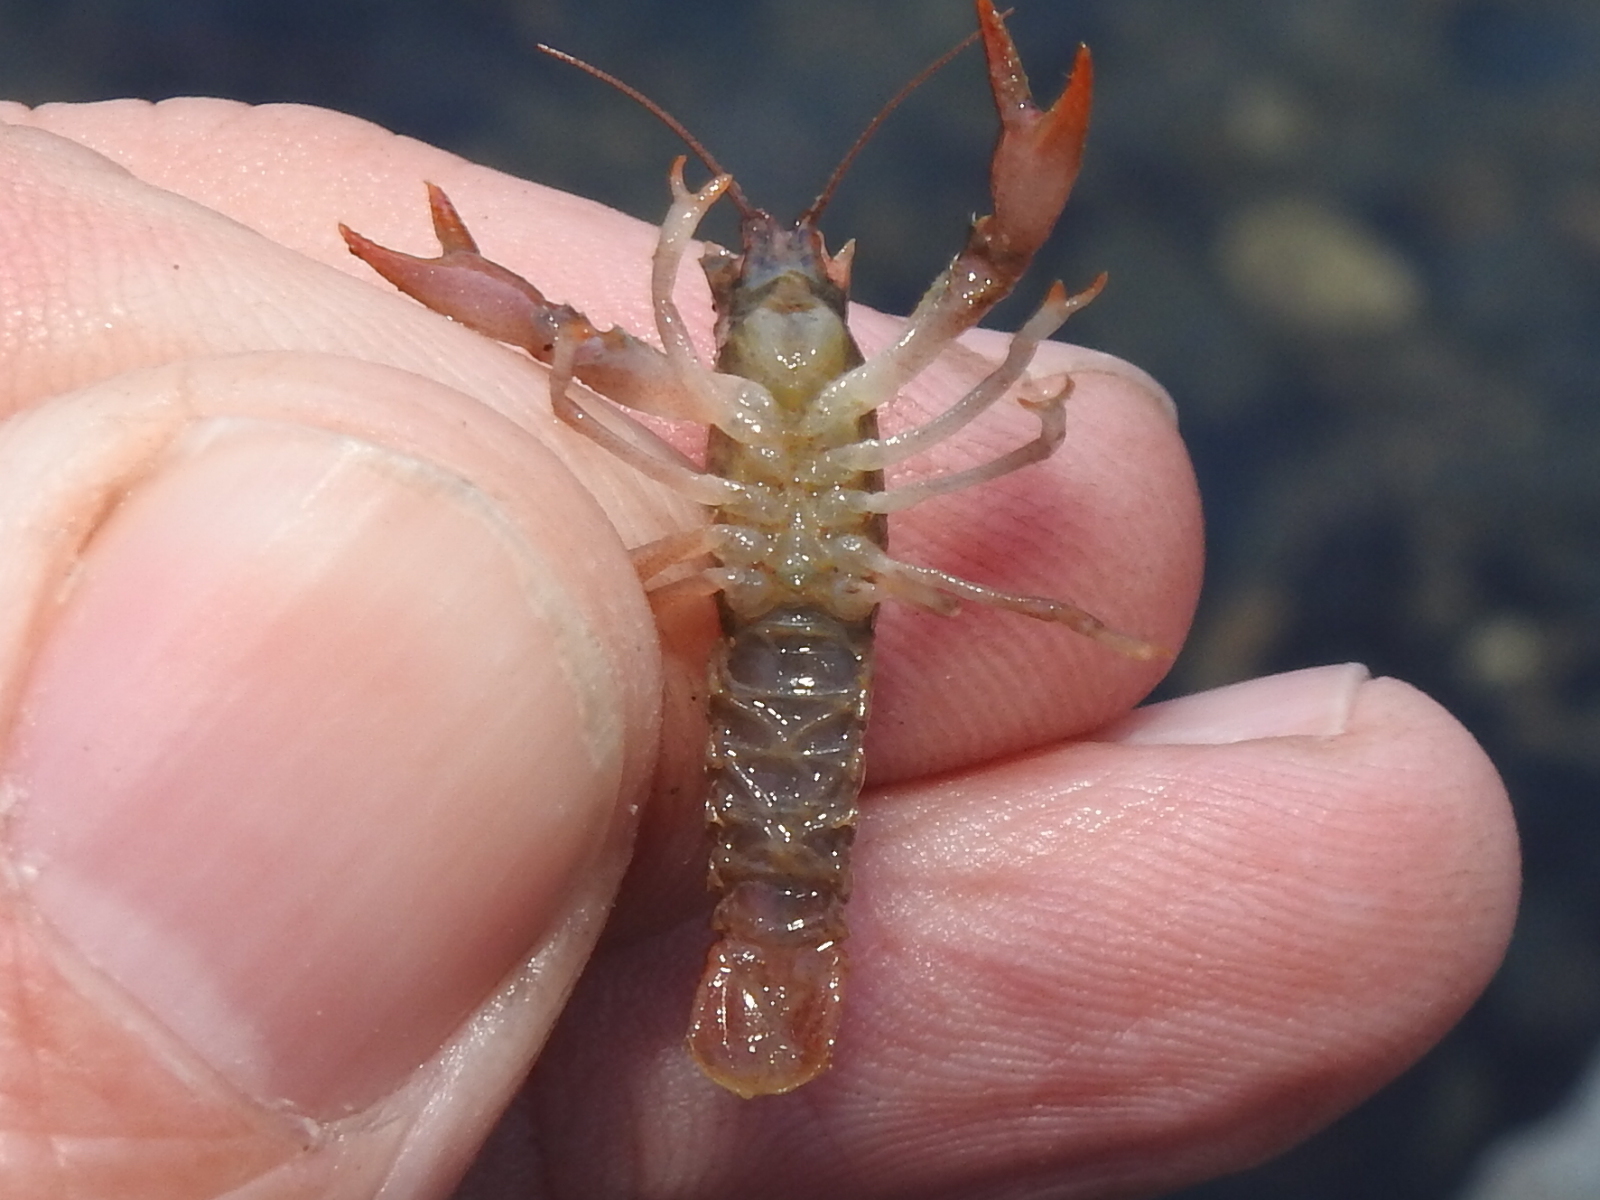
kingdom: Animalia
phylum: Arthropoda
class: Malacostraca
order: Decapoda
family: Cambaridae
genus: Faxonius
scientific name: Faxonius leptogonopodus
